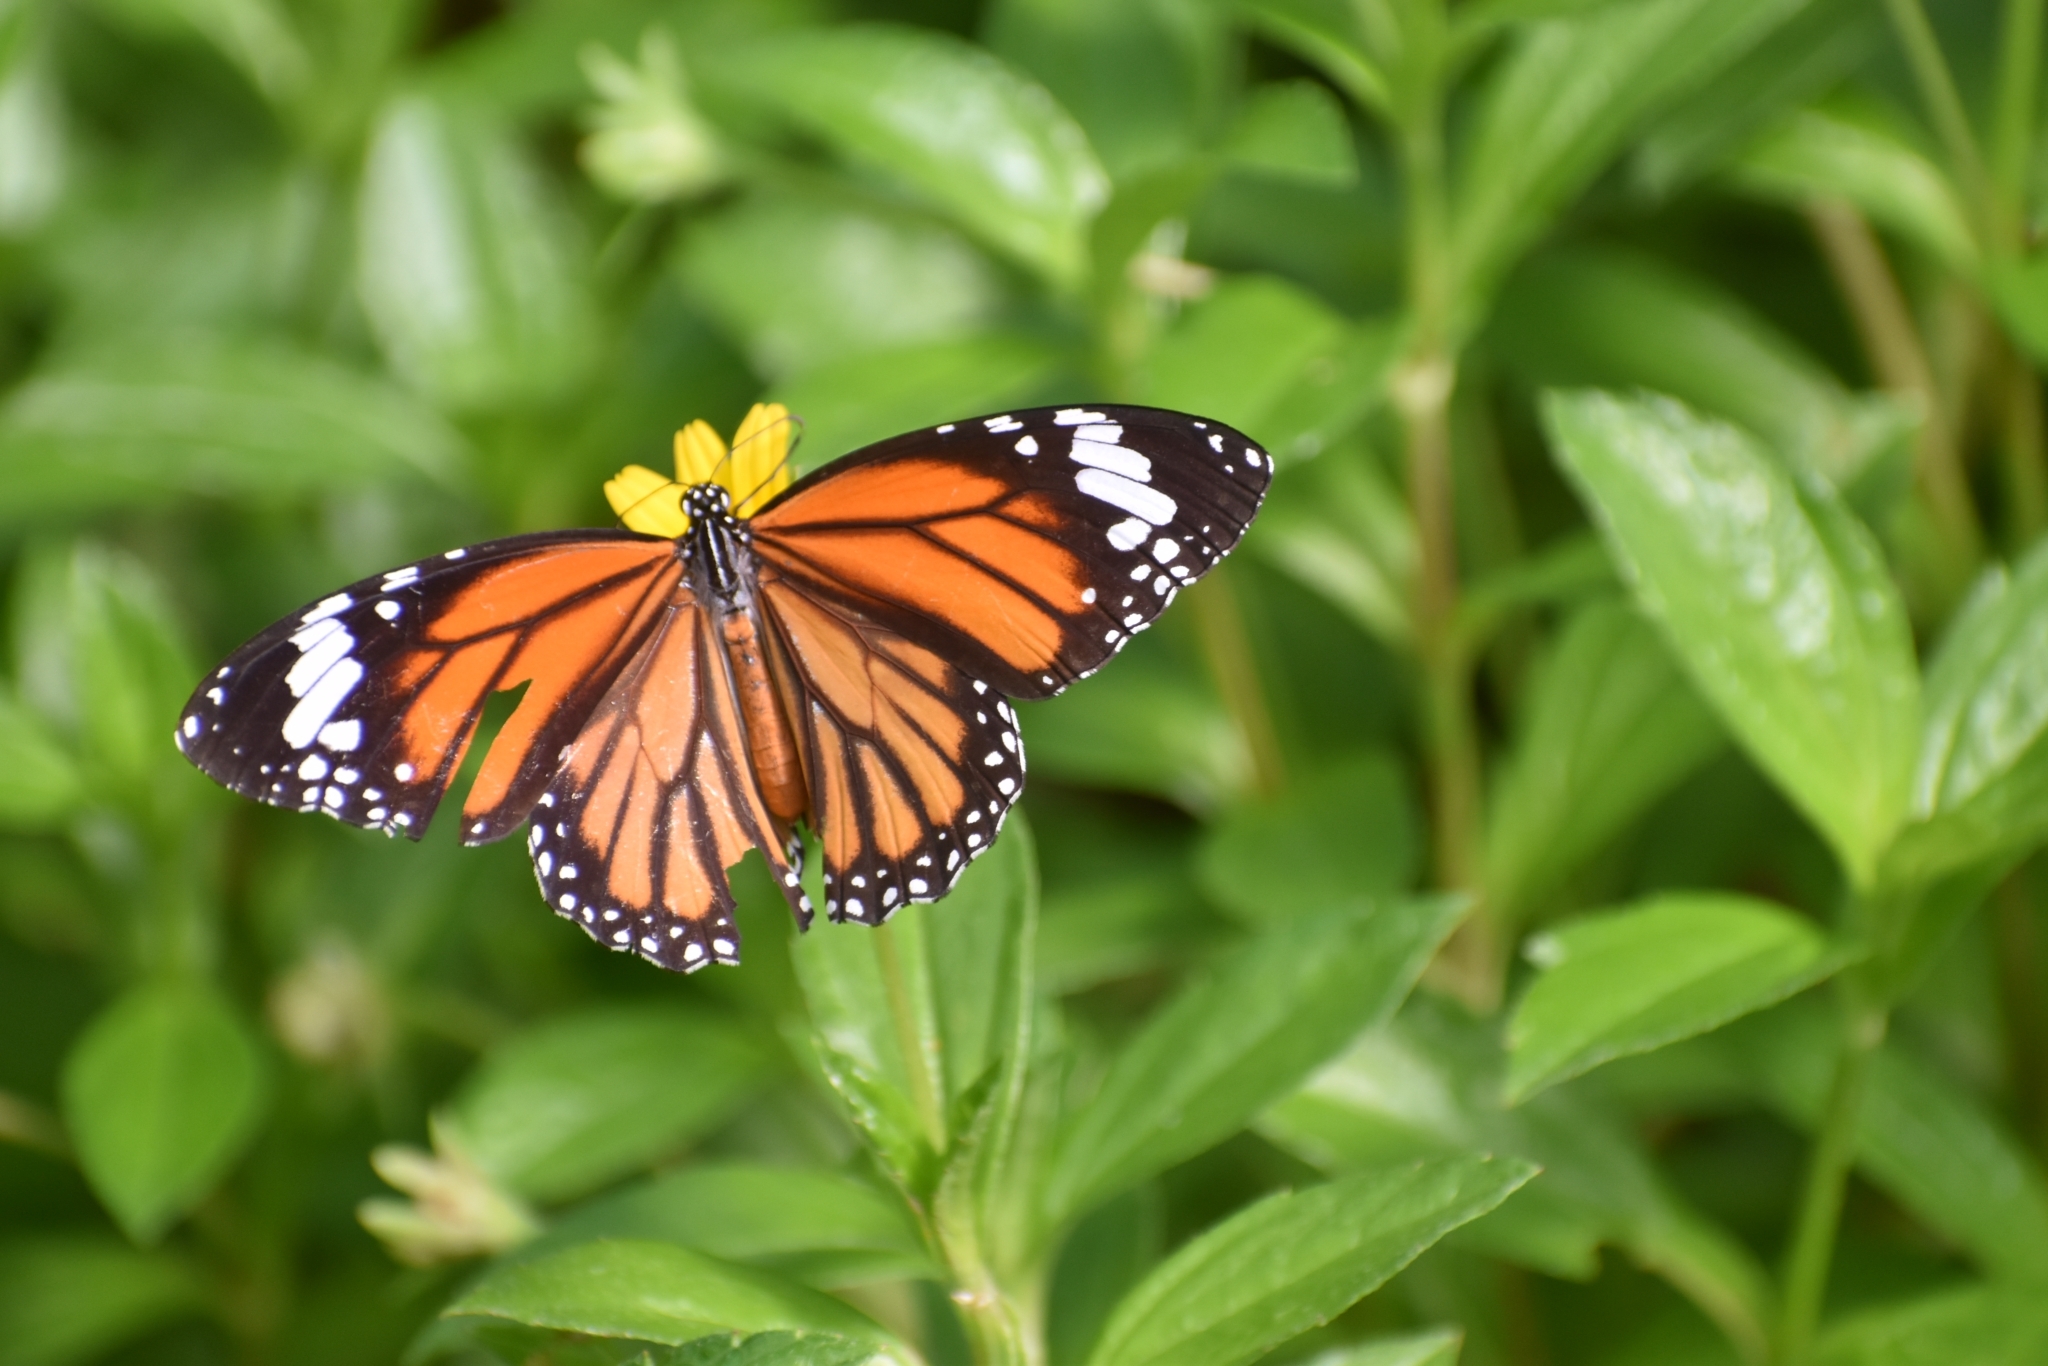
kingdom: Animalia
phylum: Arthropoda
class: Insecta
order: Lepidoptera
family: Nymphalidae
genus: Danaus
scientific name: Danaus genutia
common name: Common tiger butterfly
